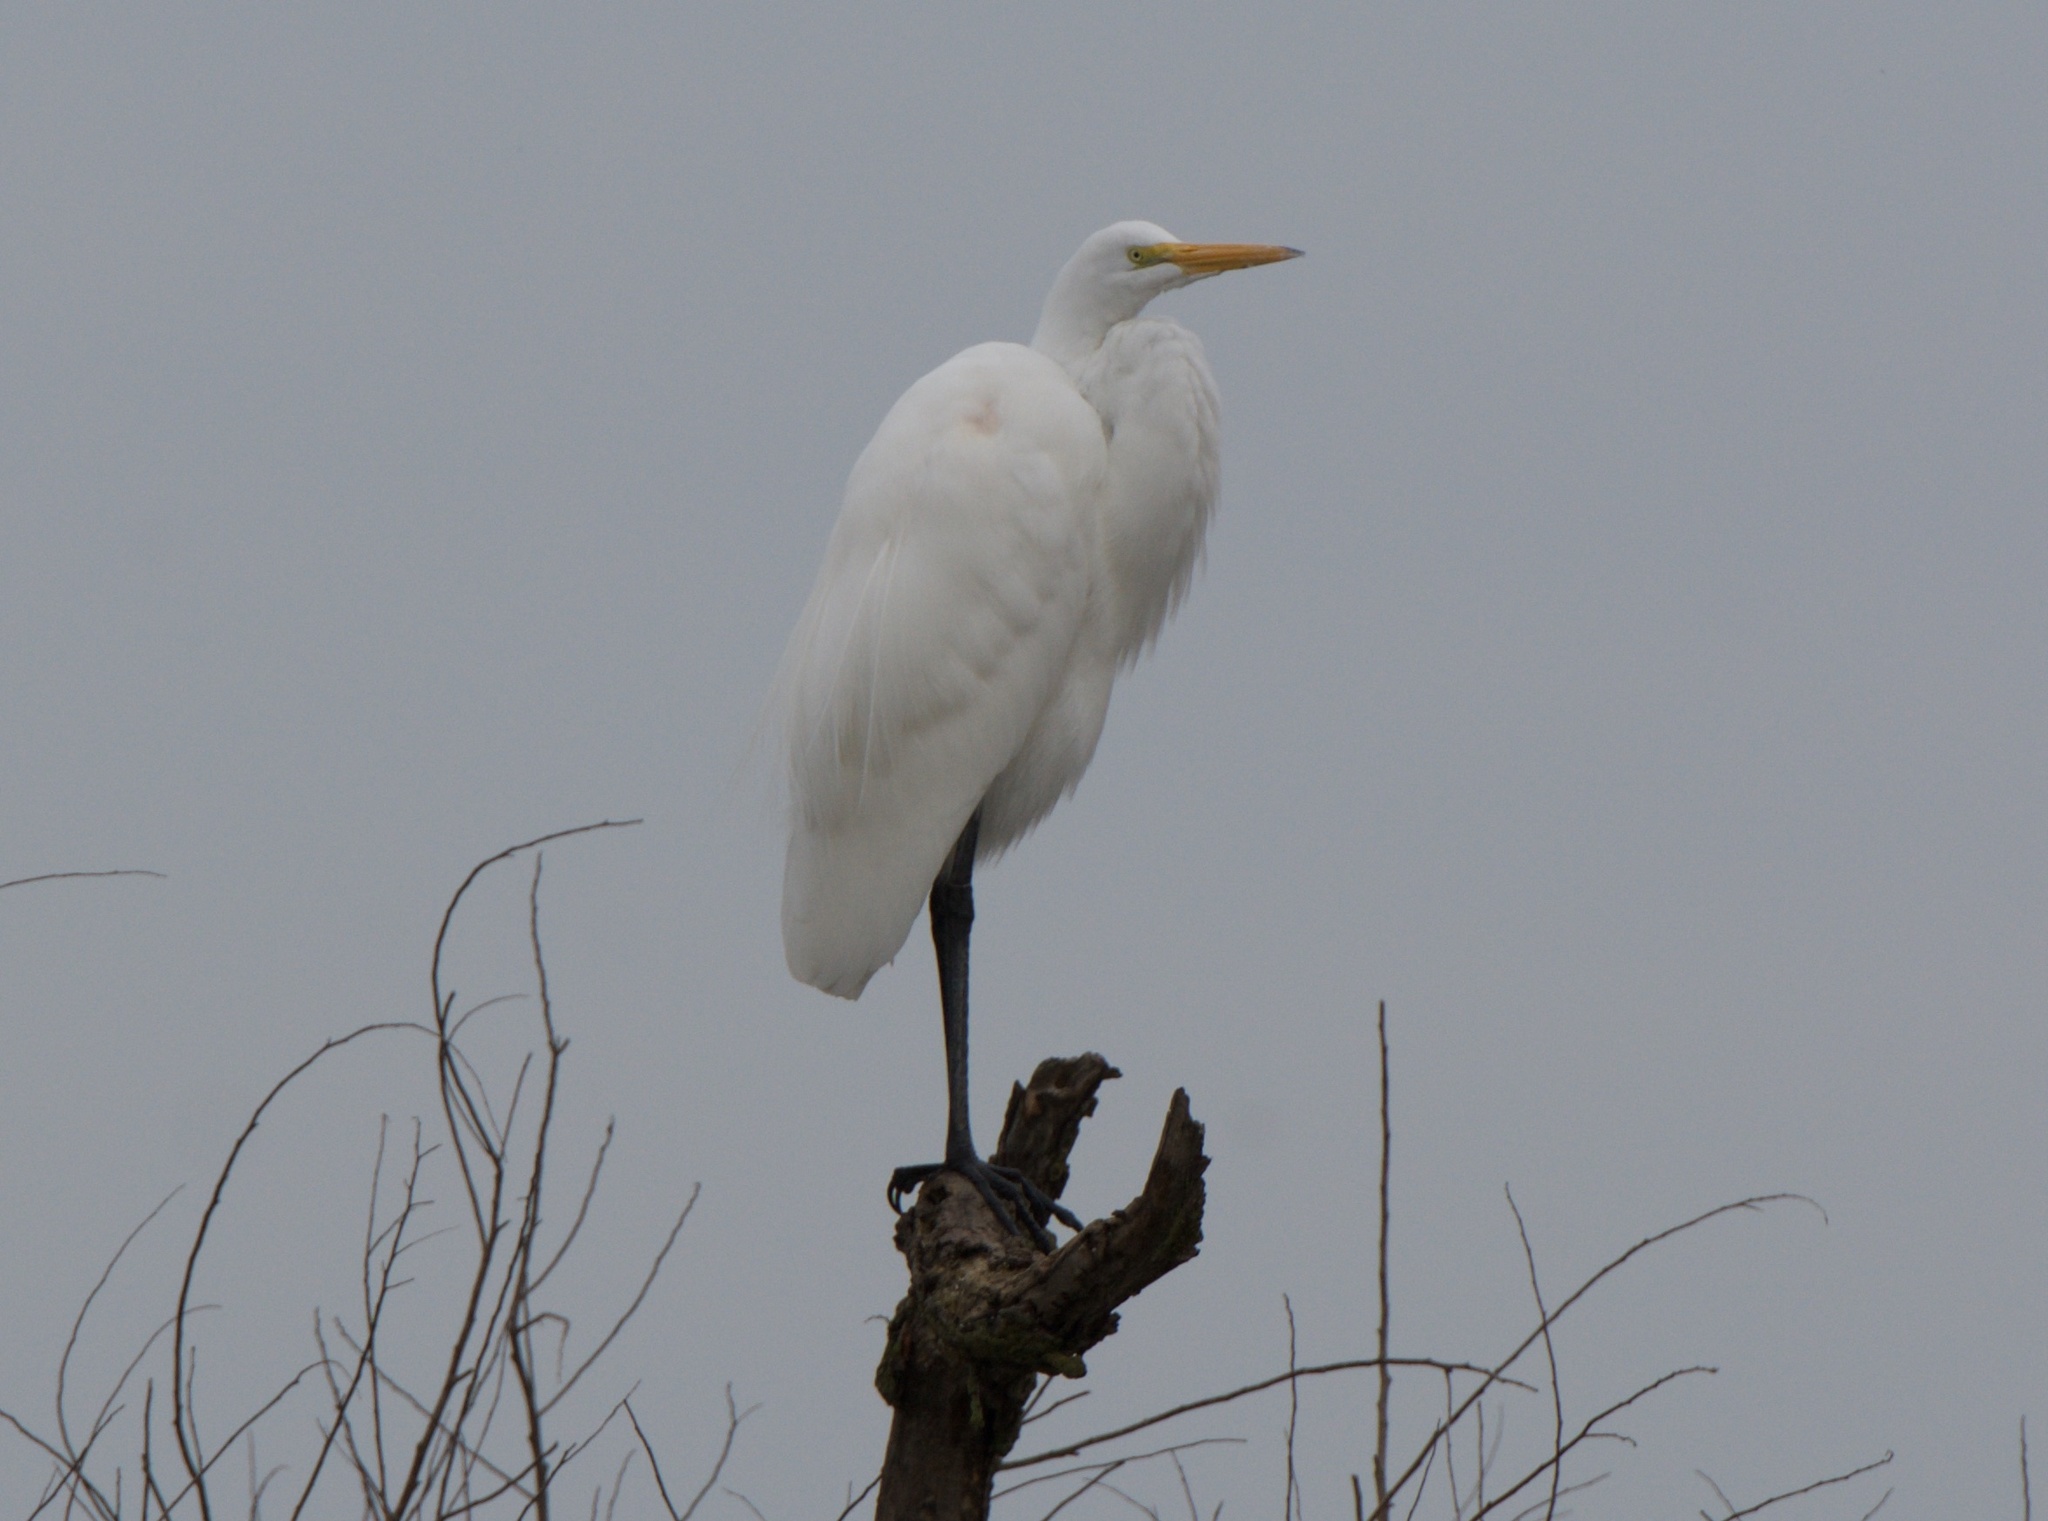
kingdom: Animalia
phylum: Chordata
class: Aves
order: Pelecaniformes
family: Ardeidae
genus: Ardea
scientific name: Ardea alba
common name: Great egret
